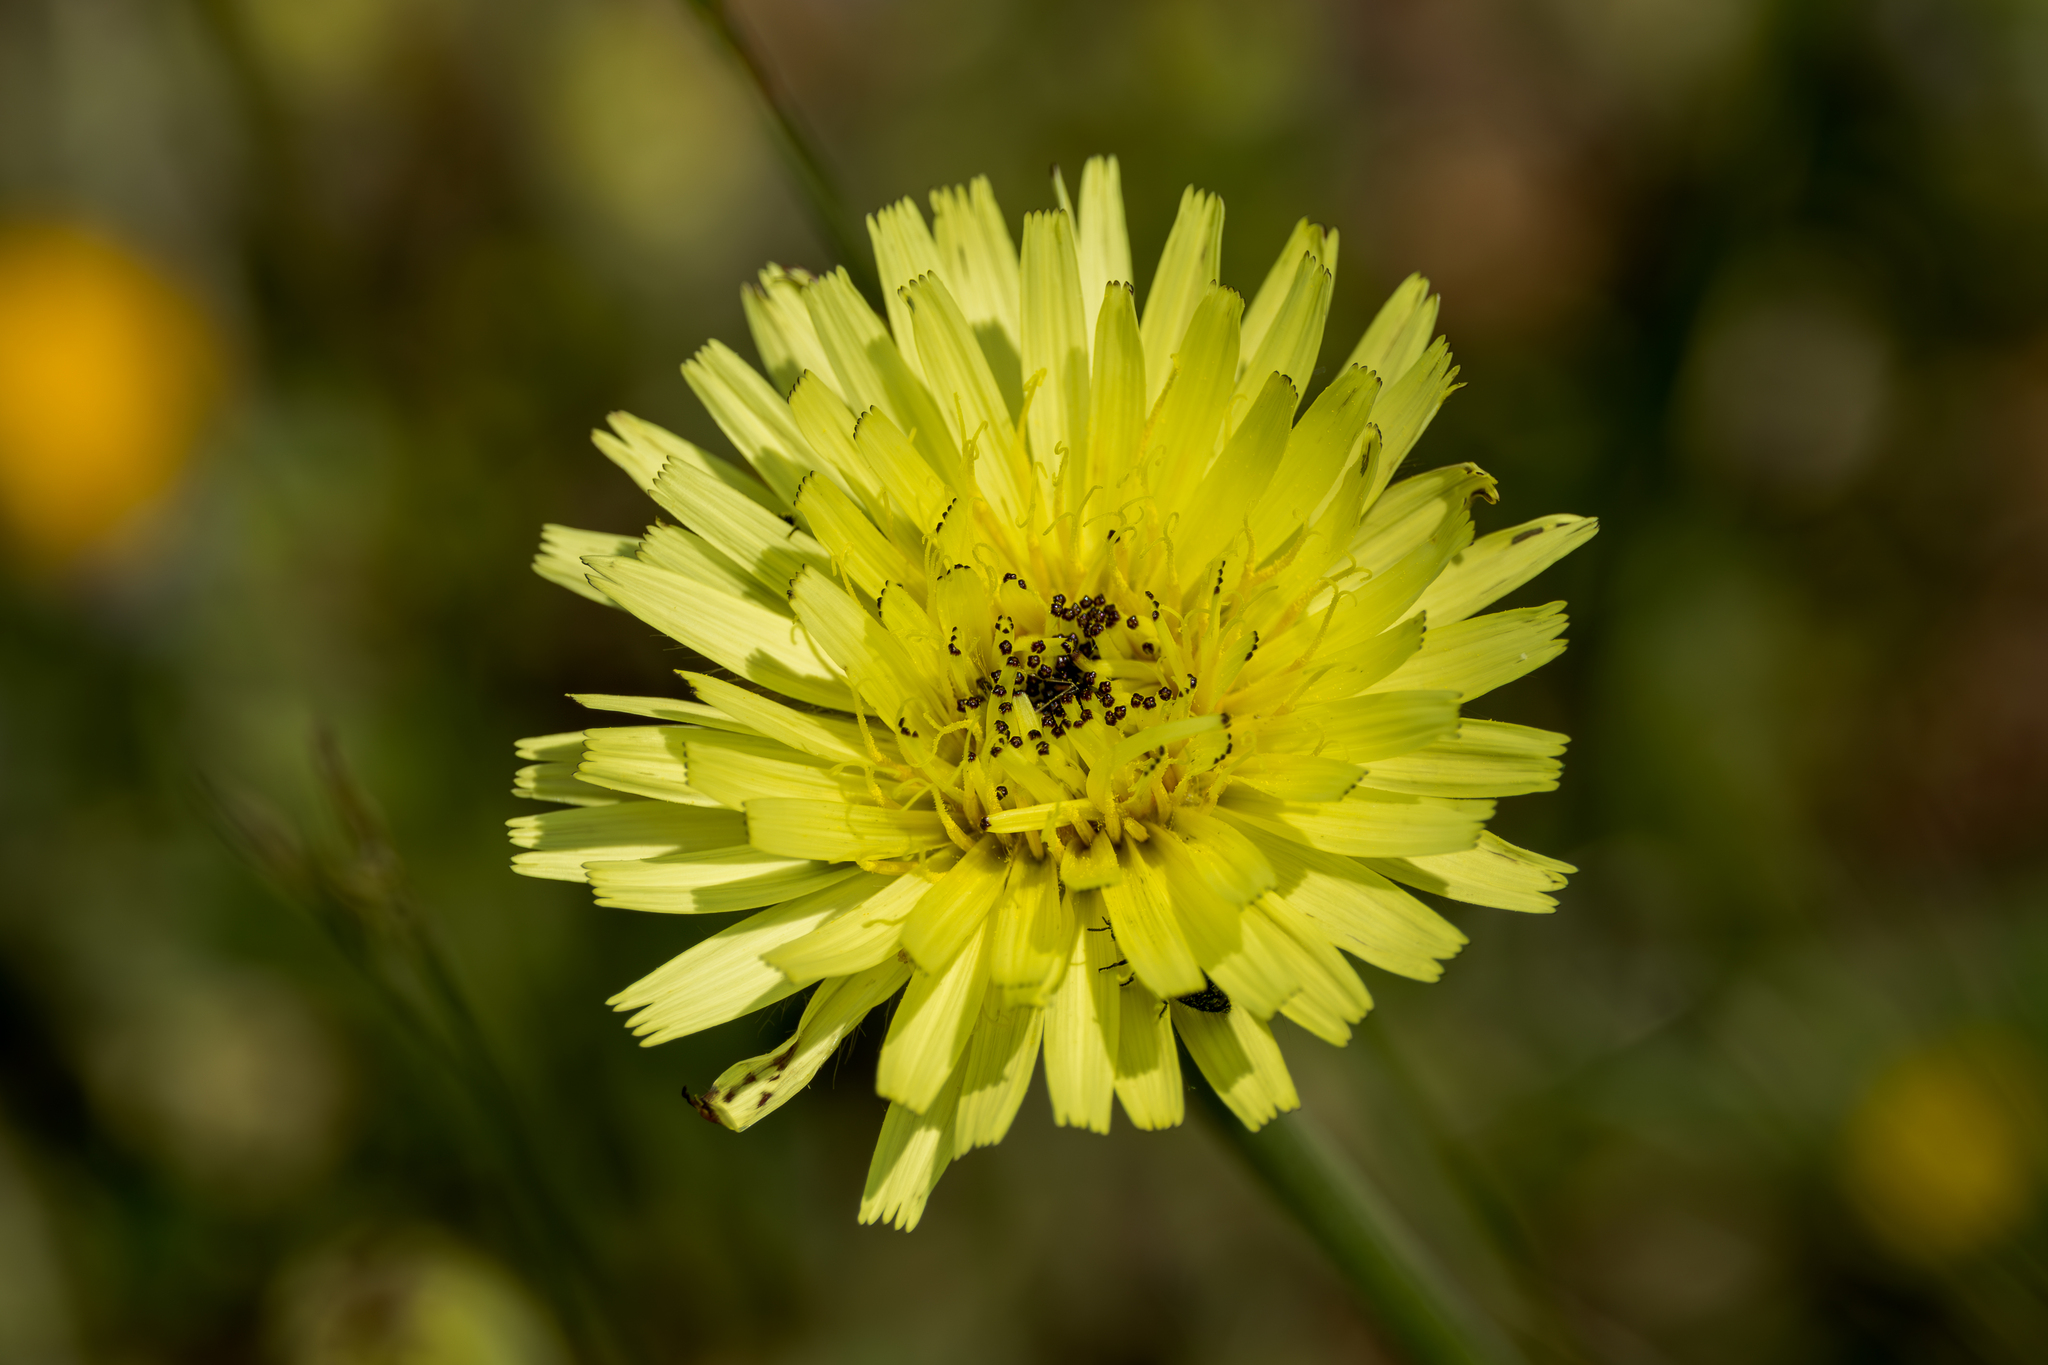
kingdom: Plantae
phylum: Tracheophyta
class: Magnoliopsida
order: Asterales
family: Asteraceae
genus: Urospermum
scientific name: Urospermum dalechampii
